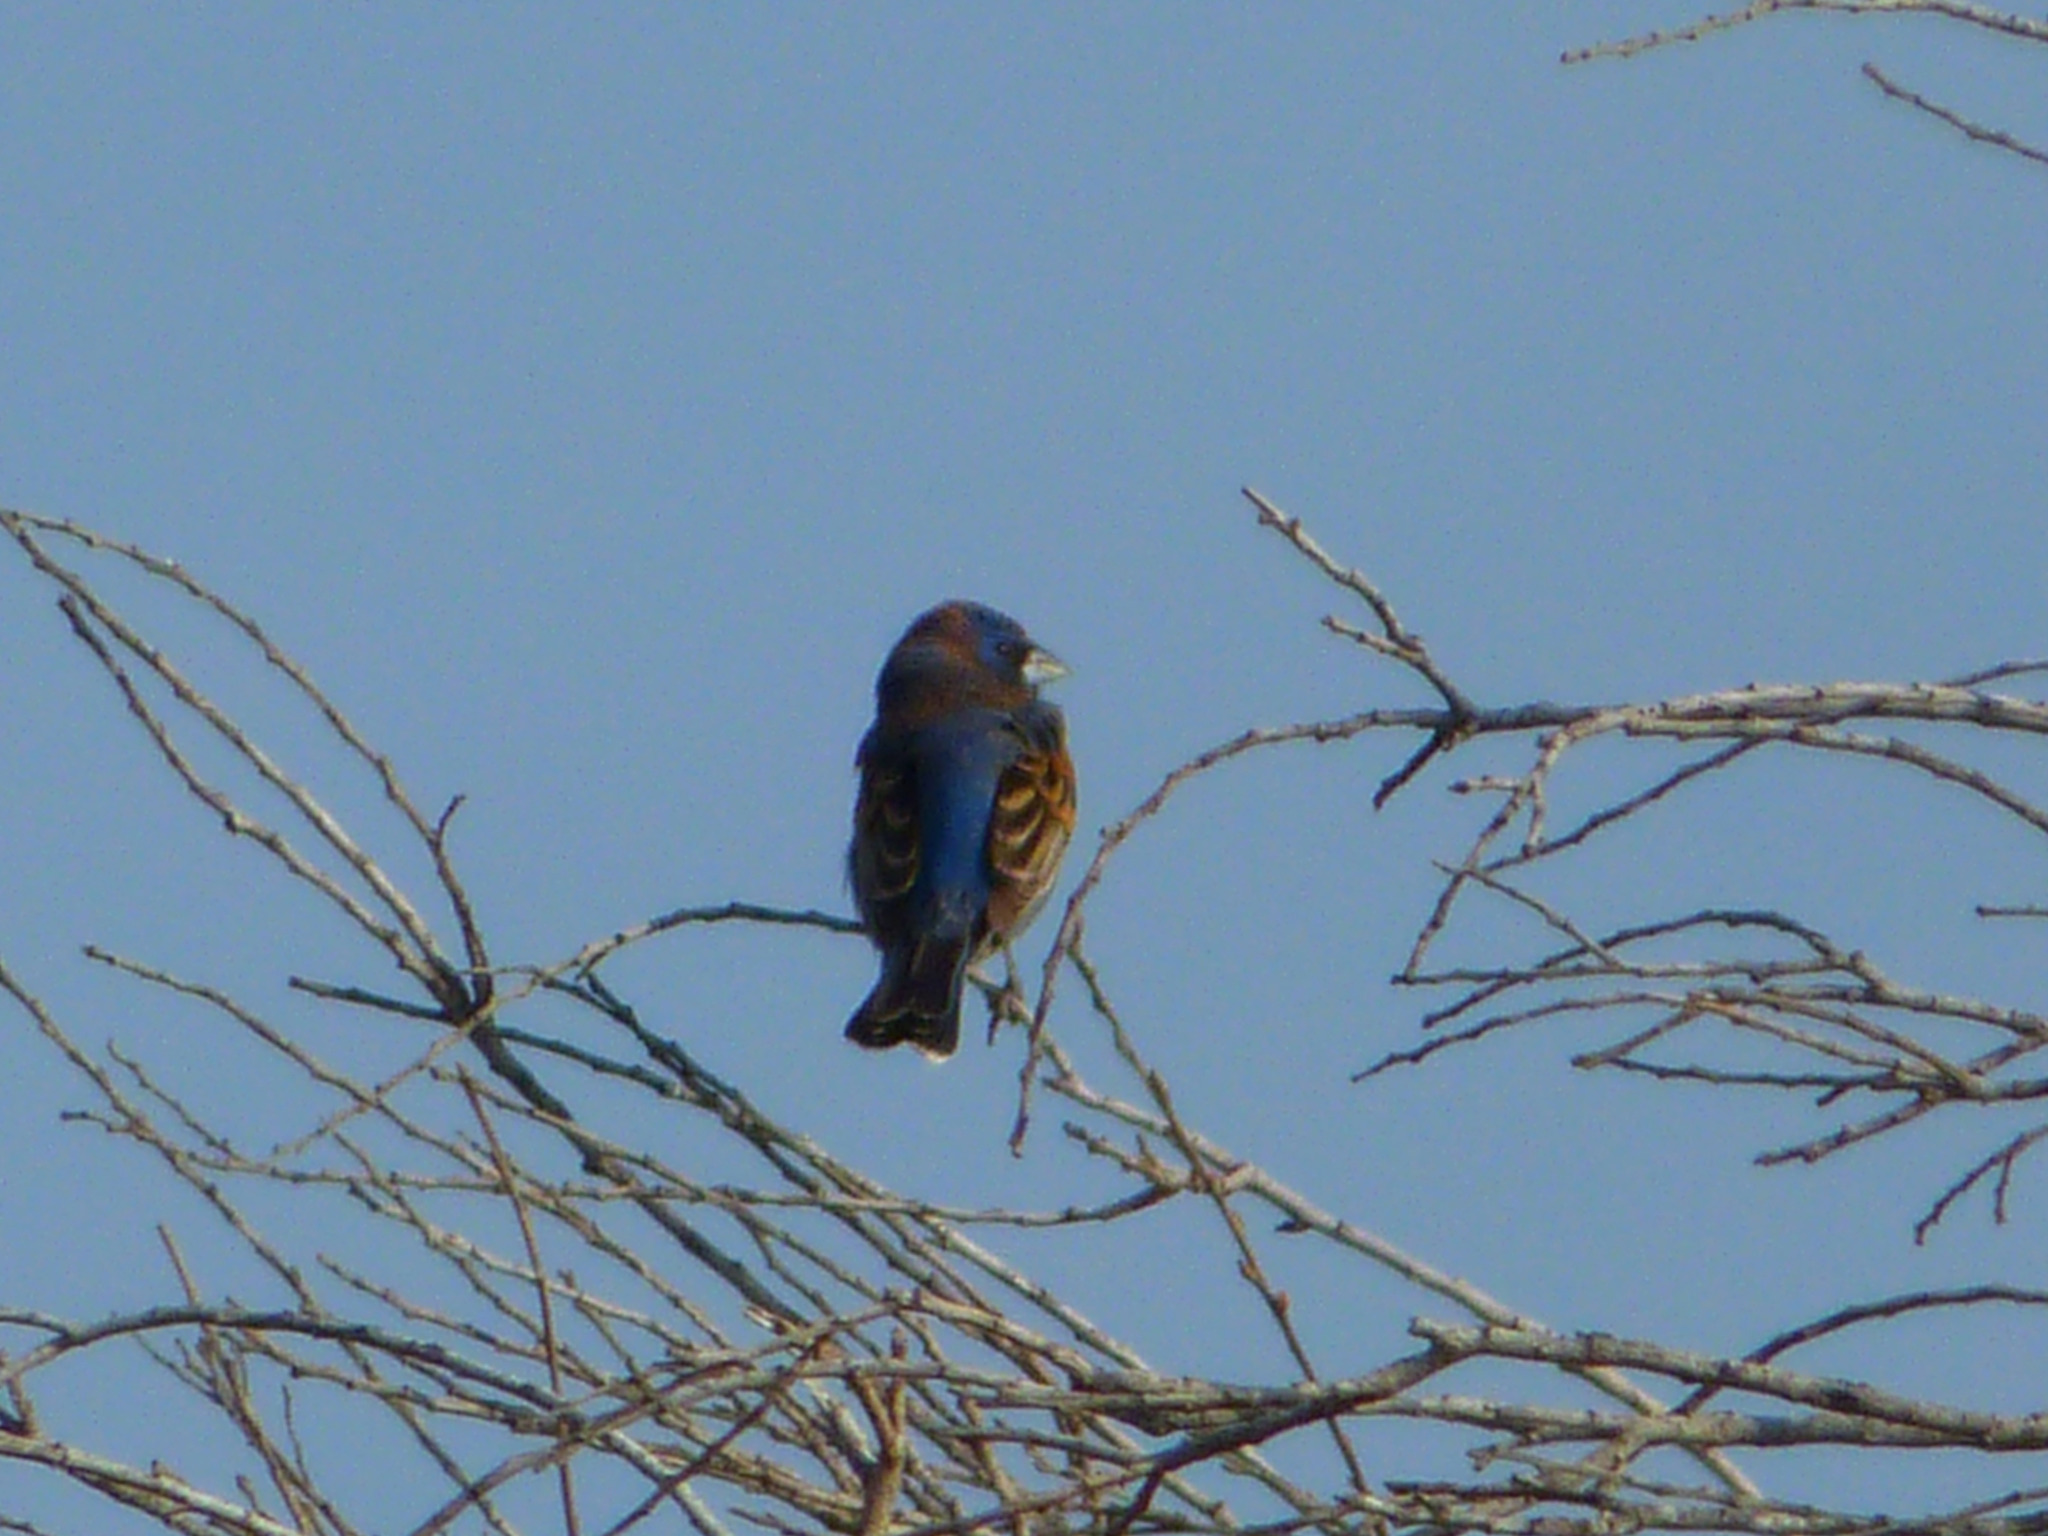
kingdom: Animalia
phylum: Chordata
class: Aves
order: Passeriformes
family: Cardinalidae
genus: Passerina
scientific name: Passerina caerulea
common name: Blue grosbeak
